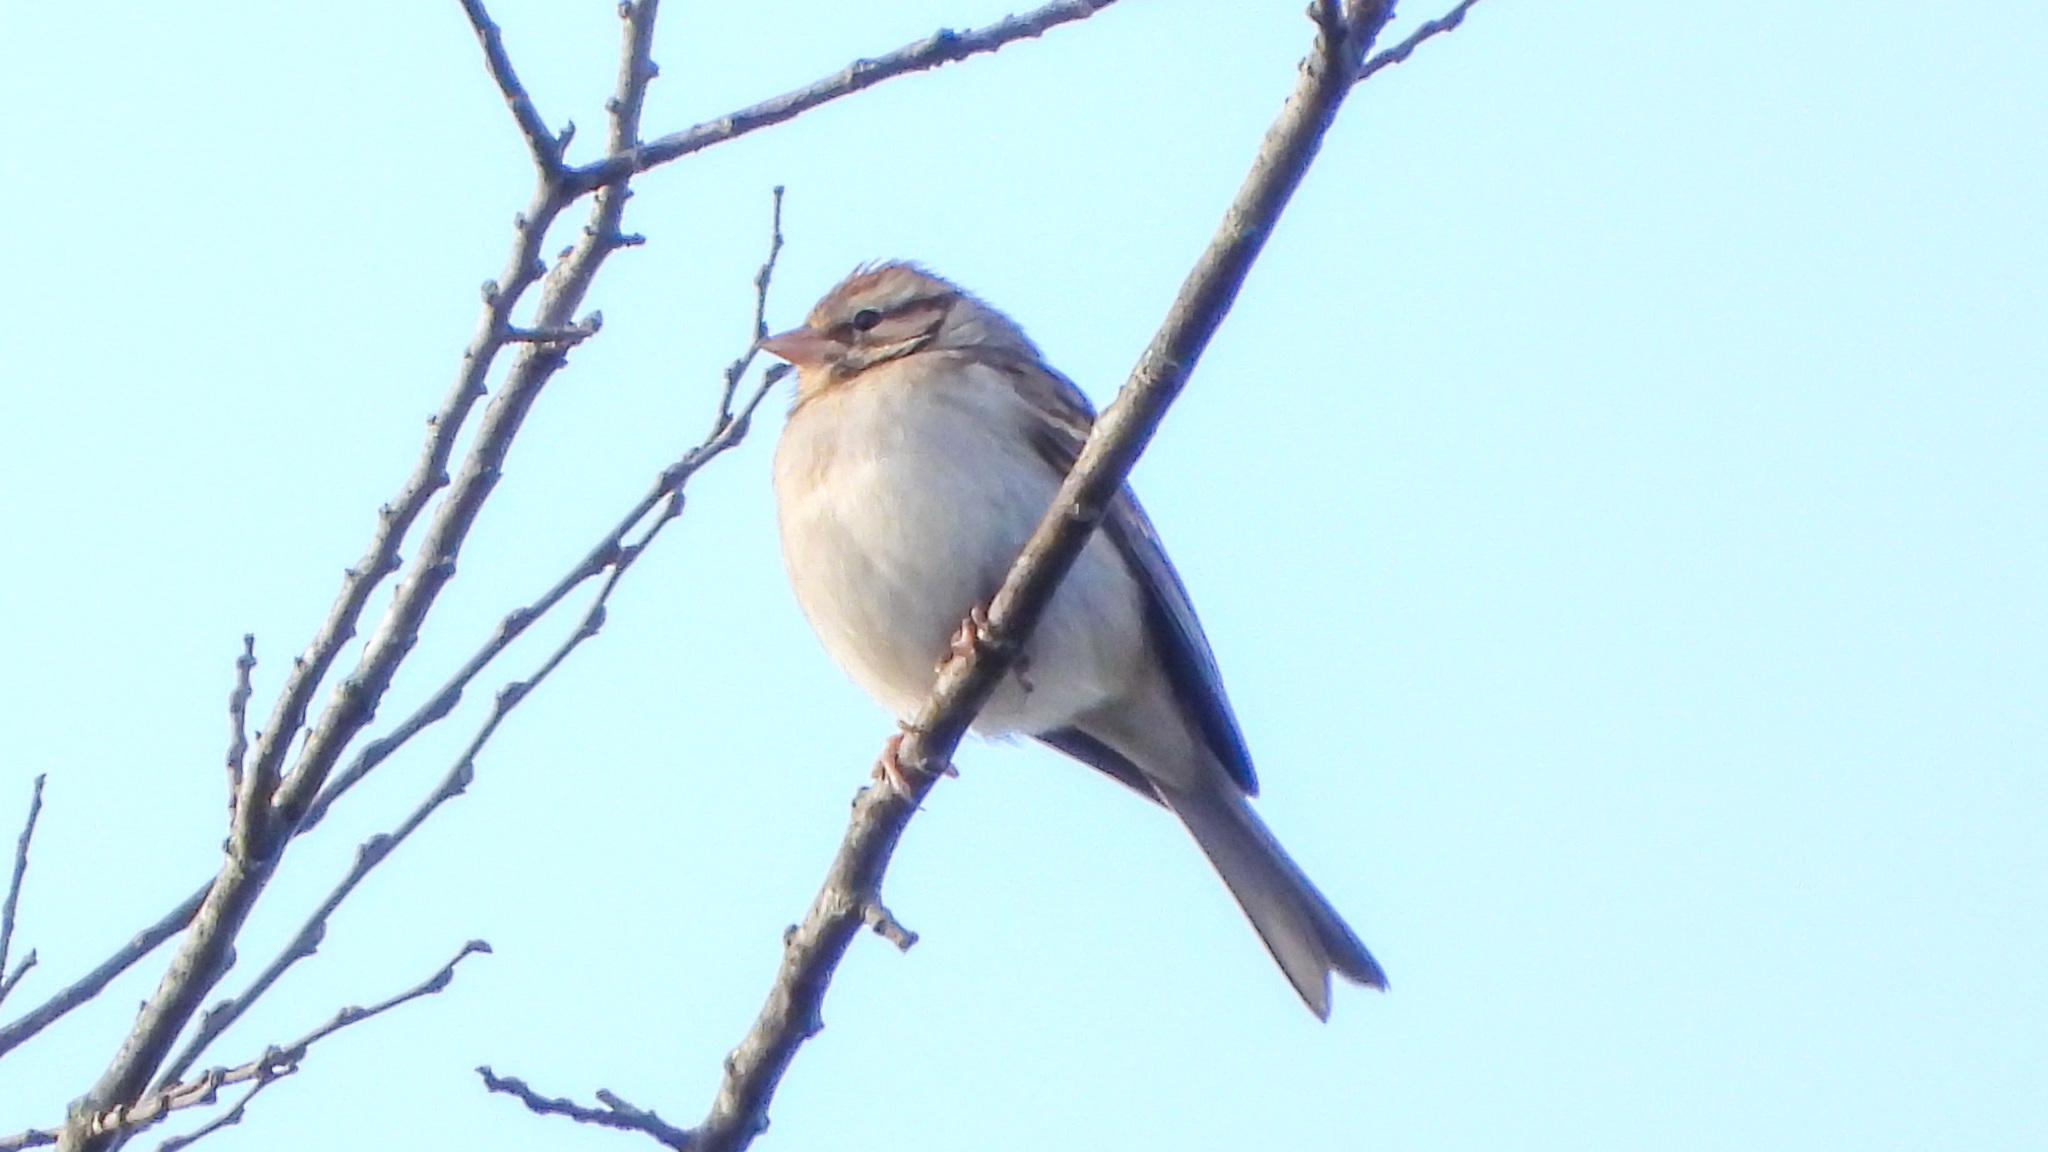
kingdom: Animalia
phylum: Chordata
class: Aves
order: Passeriformes
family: Passerellidae
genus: Spizella
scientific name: Spizella passerina
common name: Chipping sparrow
